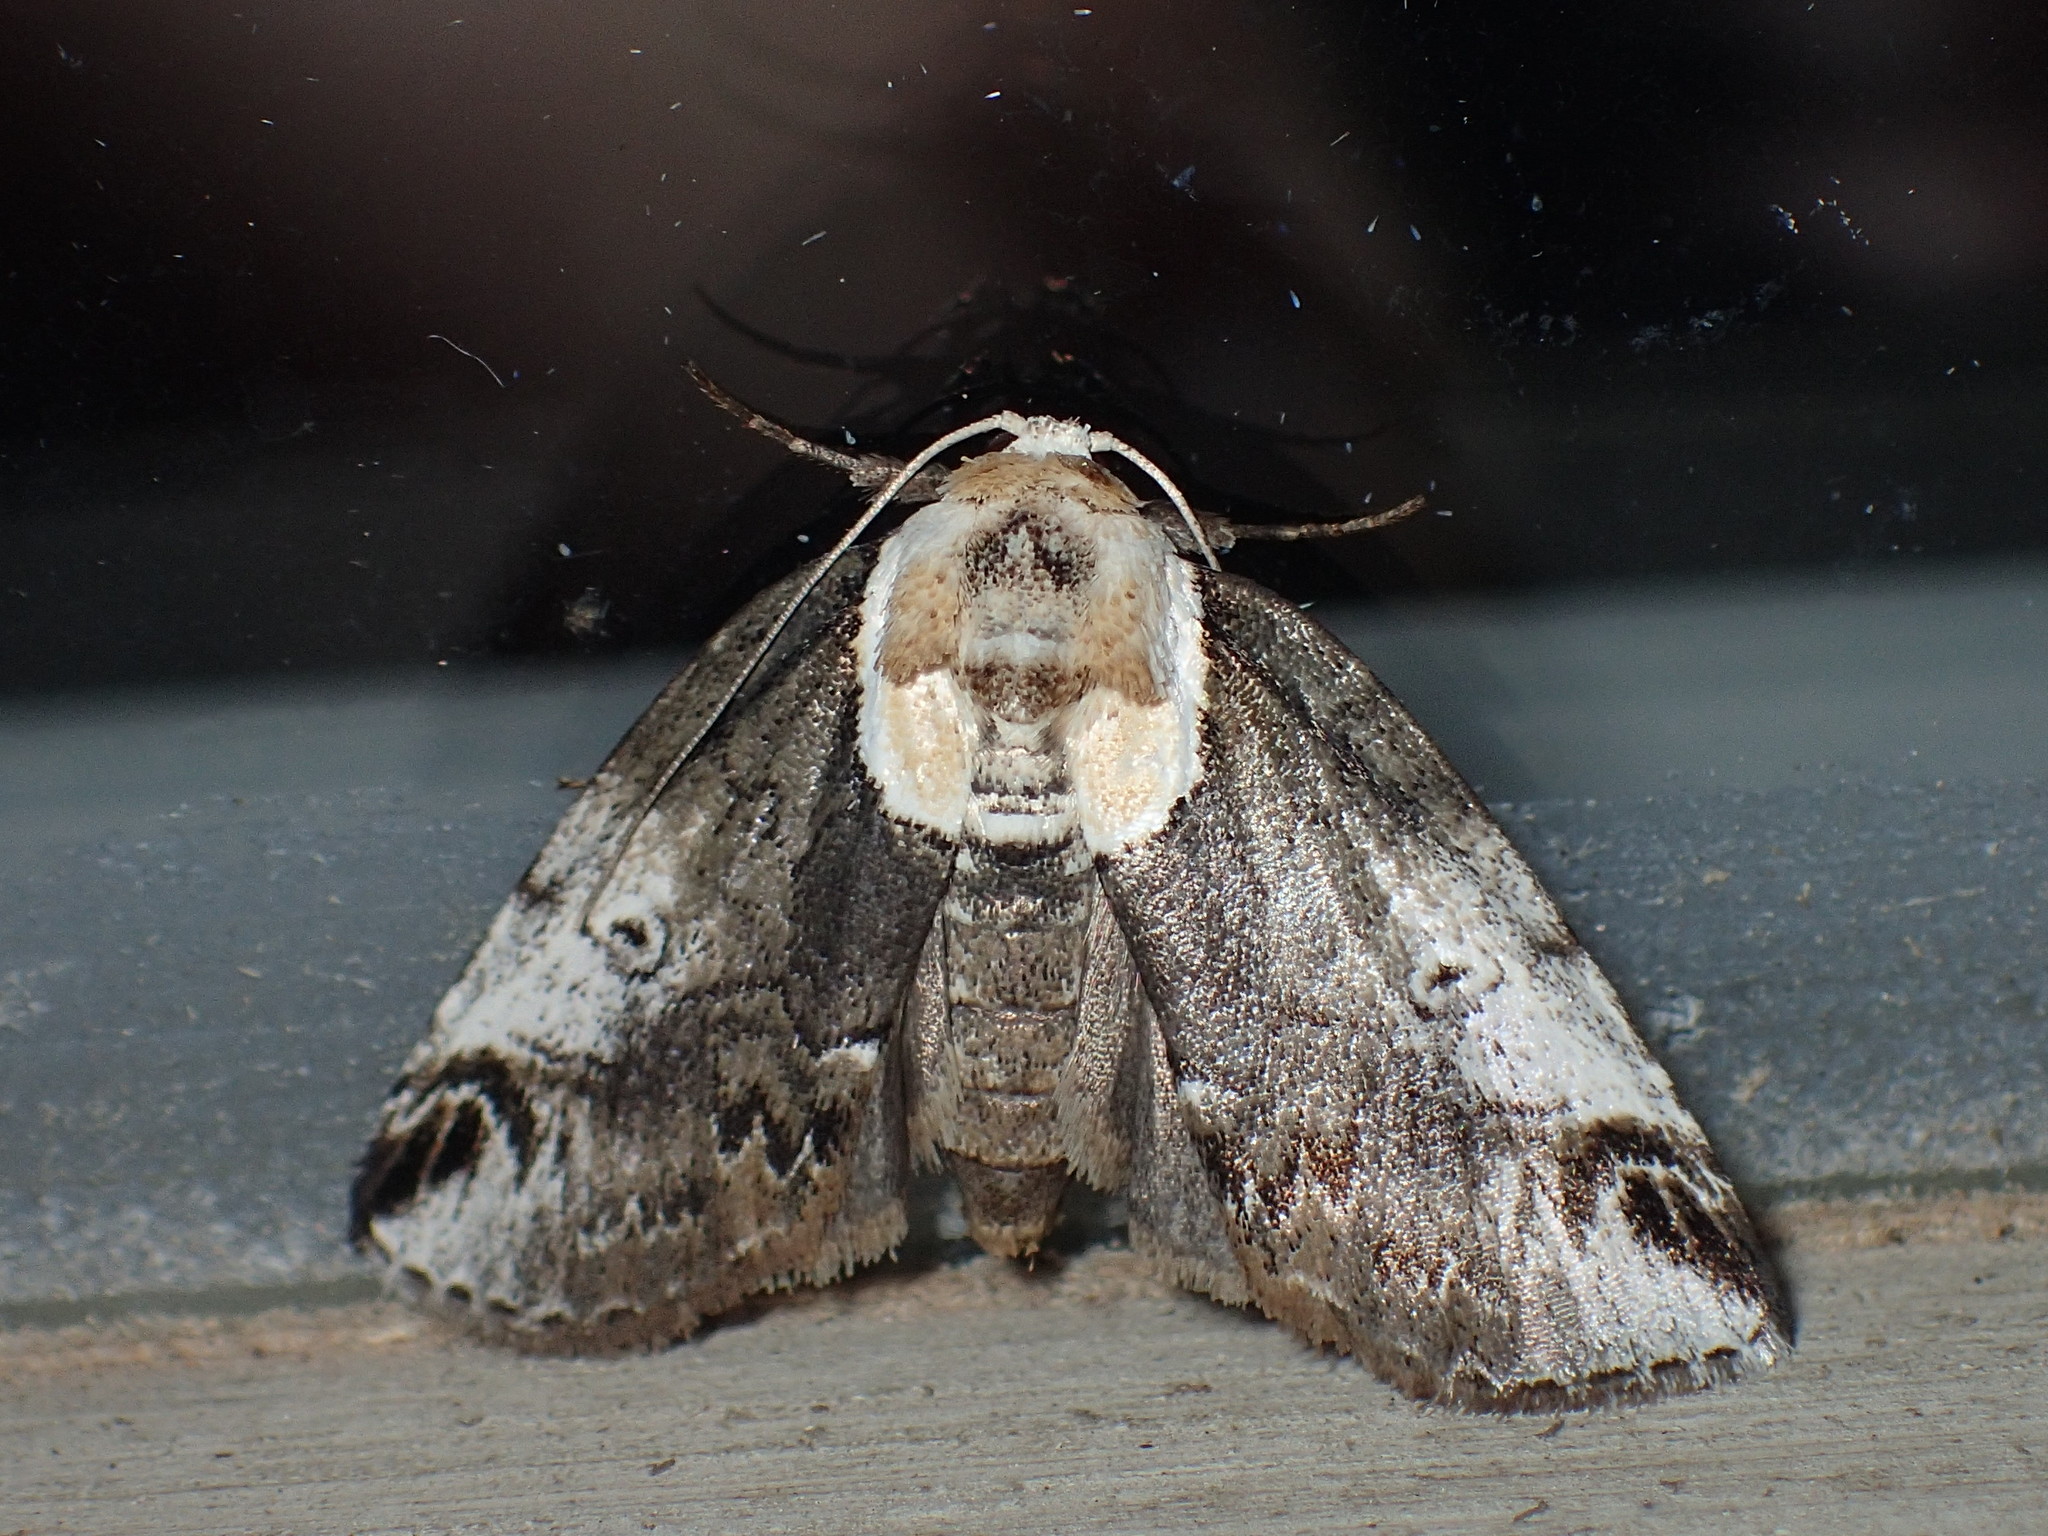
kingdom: Animalia
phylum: Arthropoda
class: Insecta
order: Lepidoptera
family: Nolidae
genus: Baileya
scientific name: Baileya ophthalmica
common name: Eyed baileya moth
